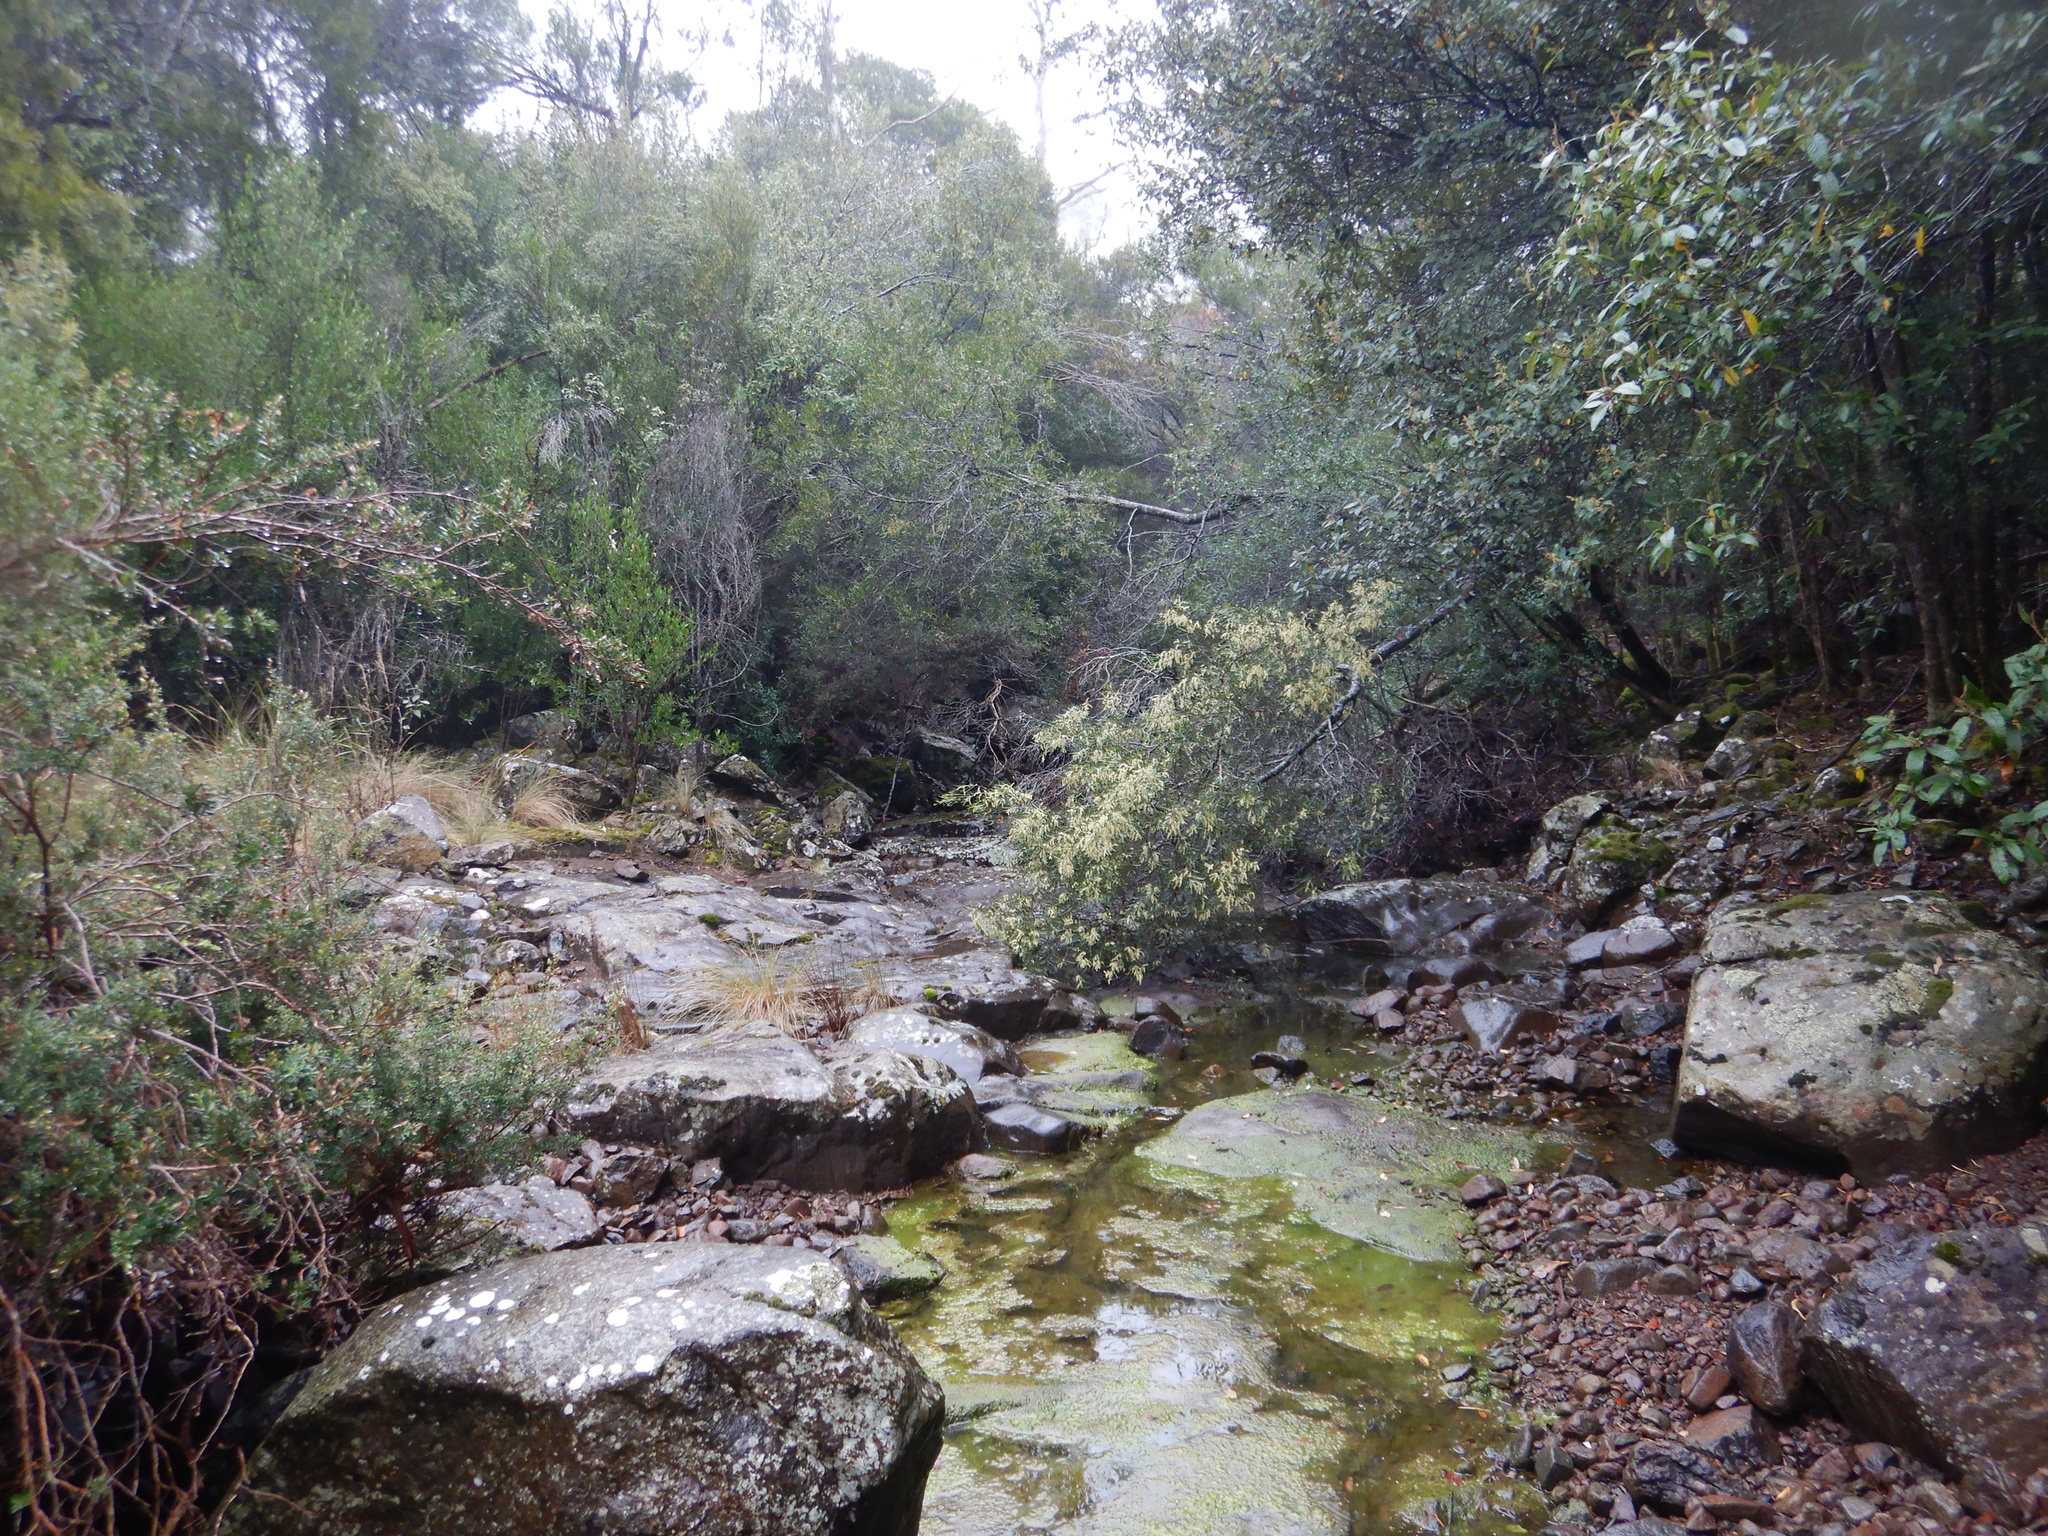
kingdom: Animalia
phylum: Chordata
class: Amphibia
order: Anura
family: Myobatrachidae
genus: Crinia
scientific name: Crinia signifera
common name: Brown froglet
